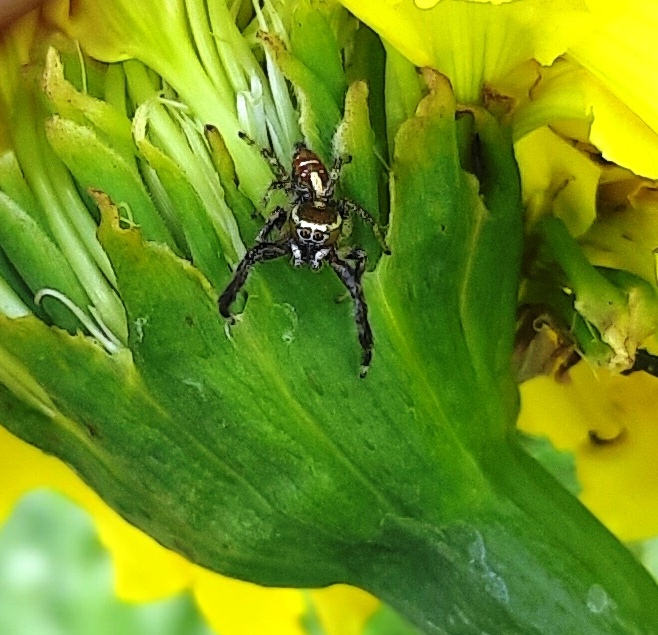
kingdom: Animalia
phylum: Arthropoda
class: Arachnida
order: Araneae
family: Salticidae
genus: Thyene
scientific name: Thyene imperialis
